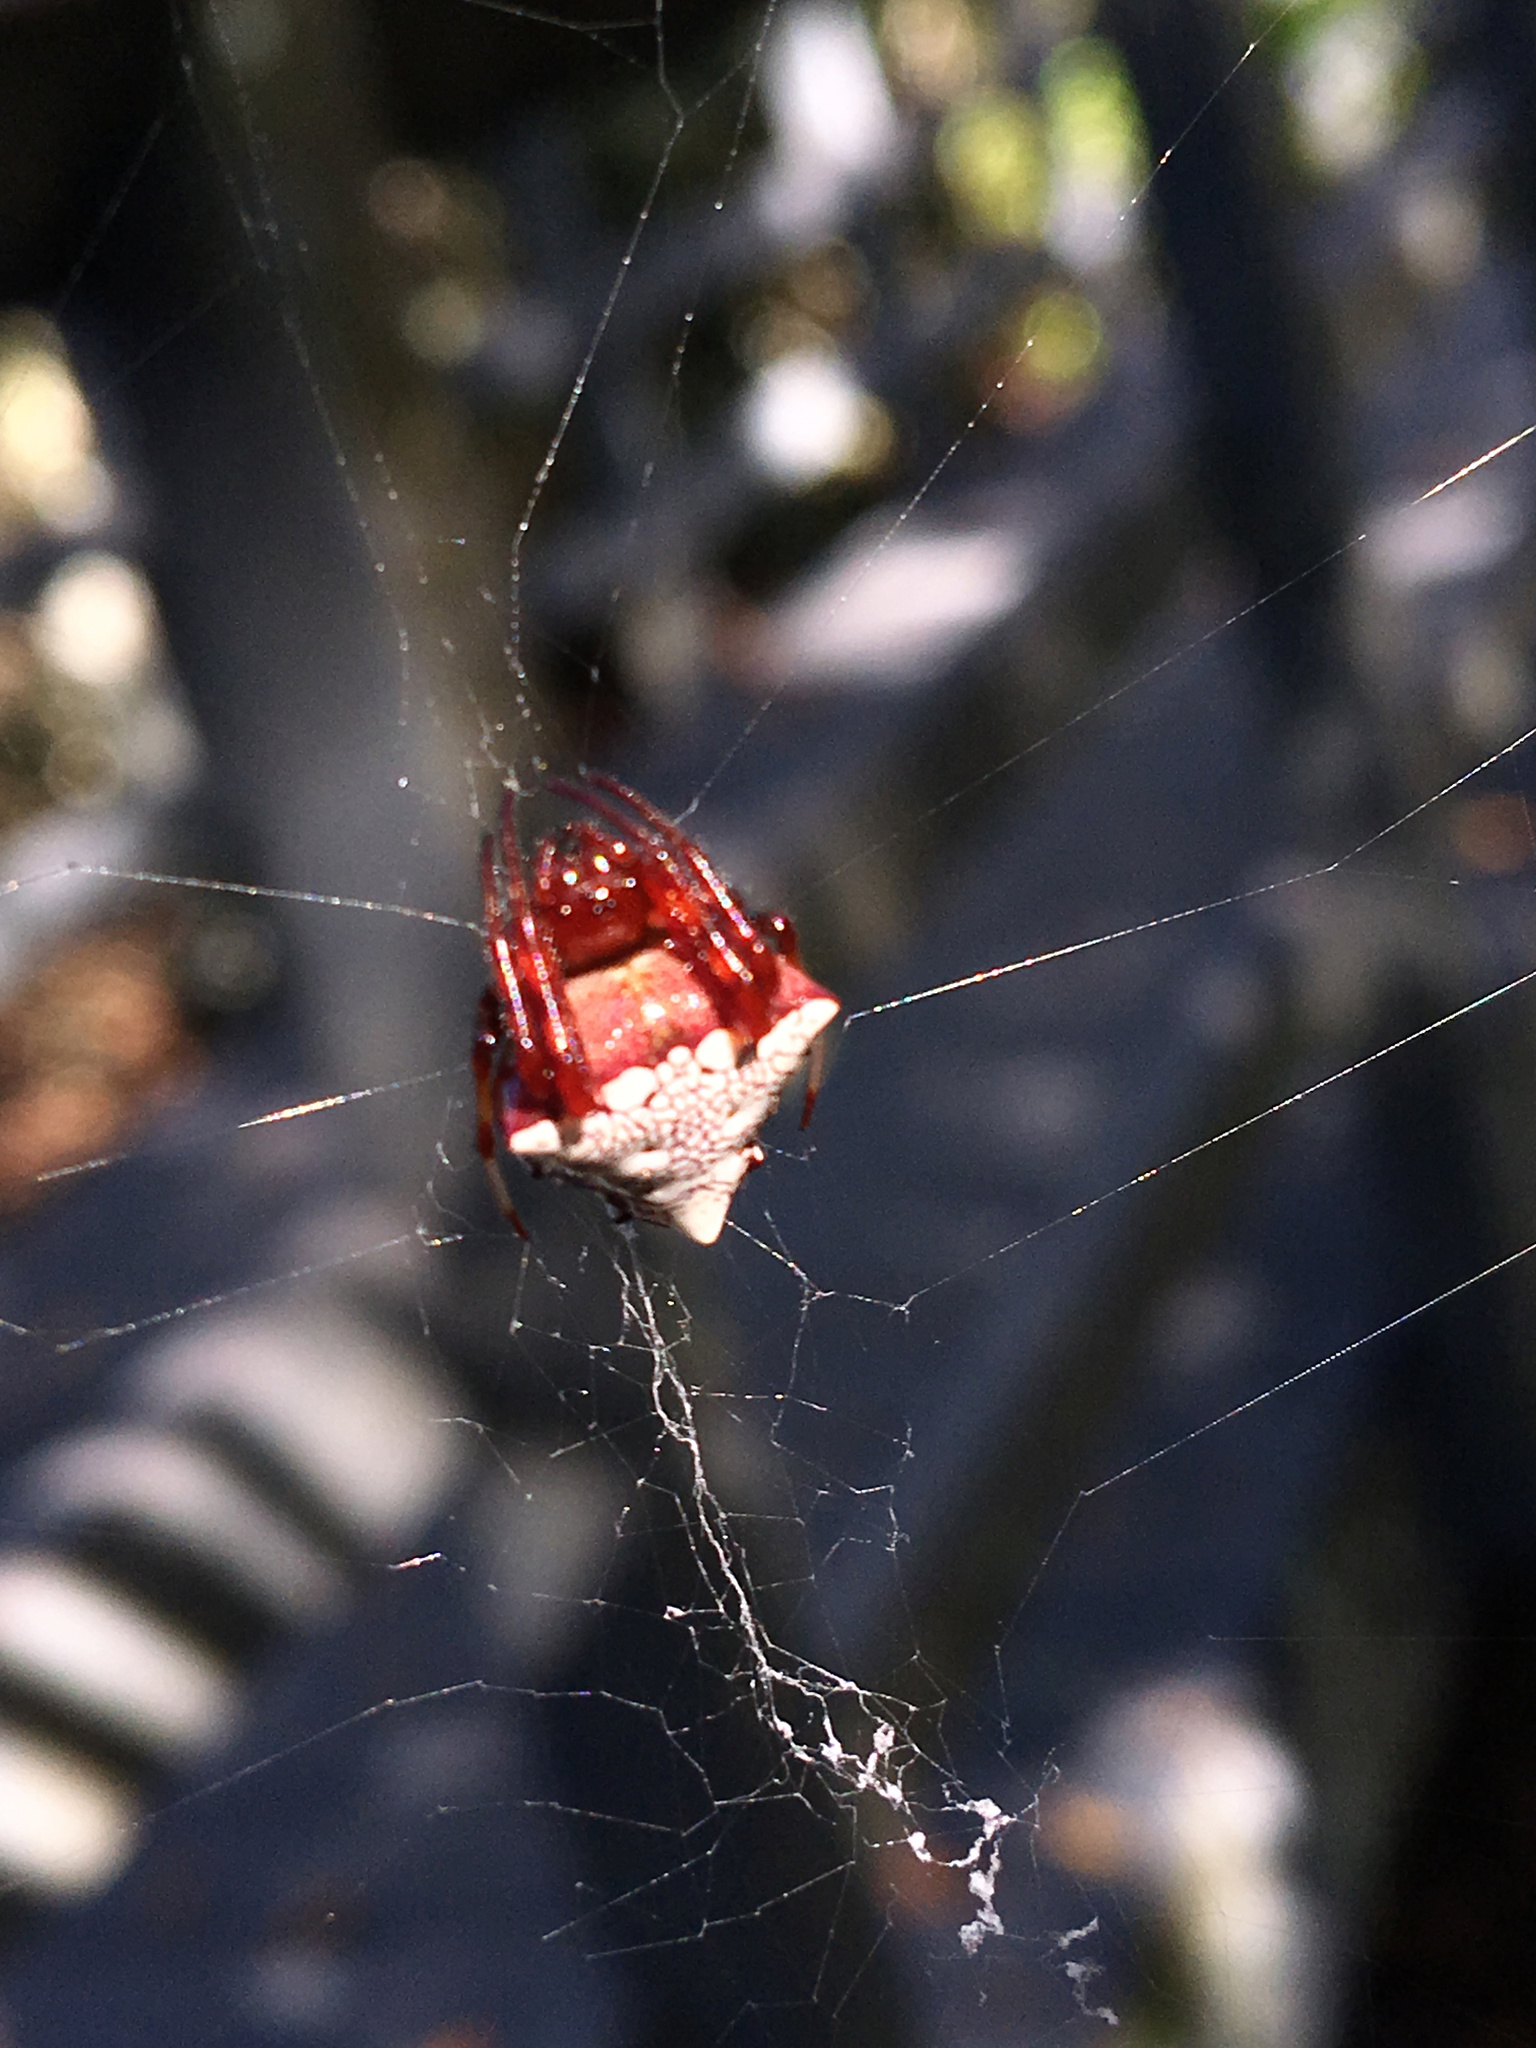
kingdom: Animalia
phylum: Arthropoda
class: Arachnida
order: Araneae
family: Araneidae
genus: Verrucosa
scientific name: Verrucosa arenata
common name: Orb weavers
